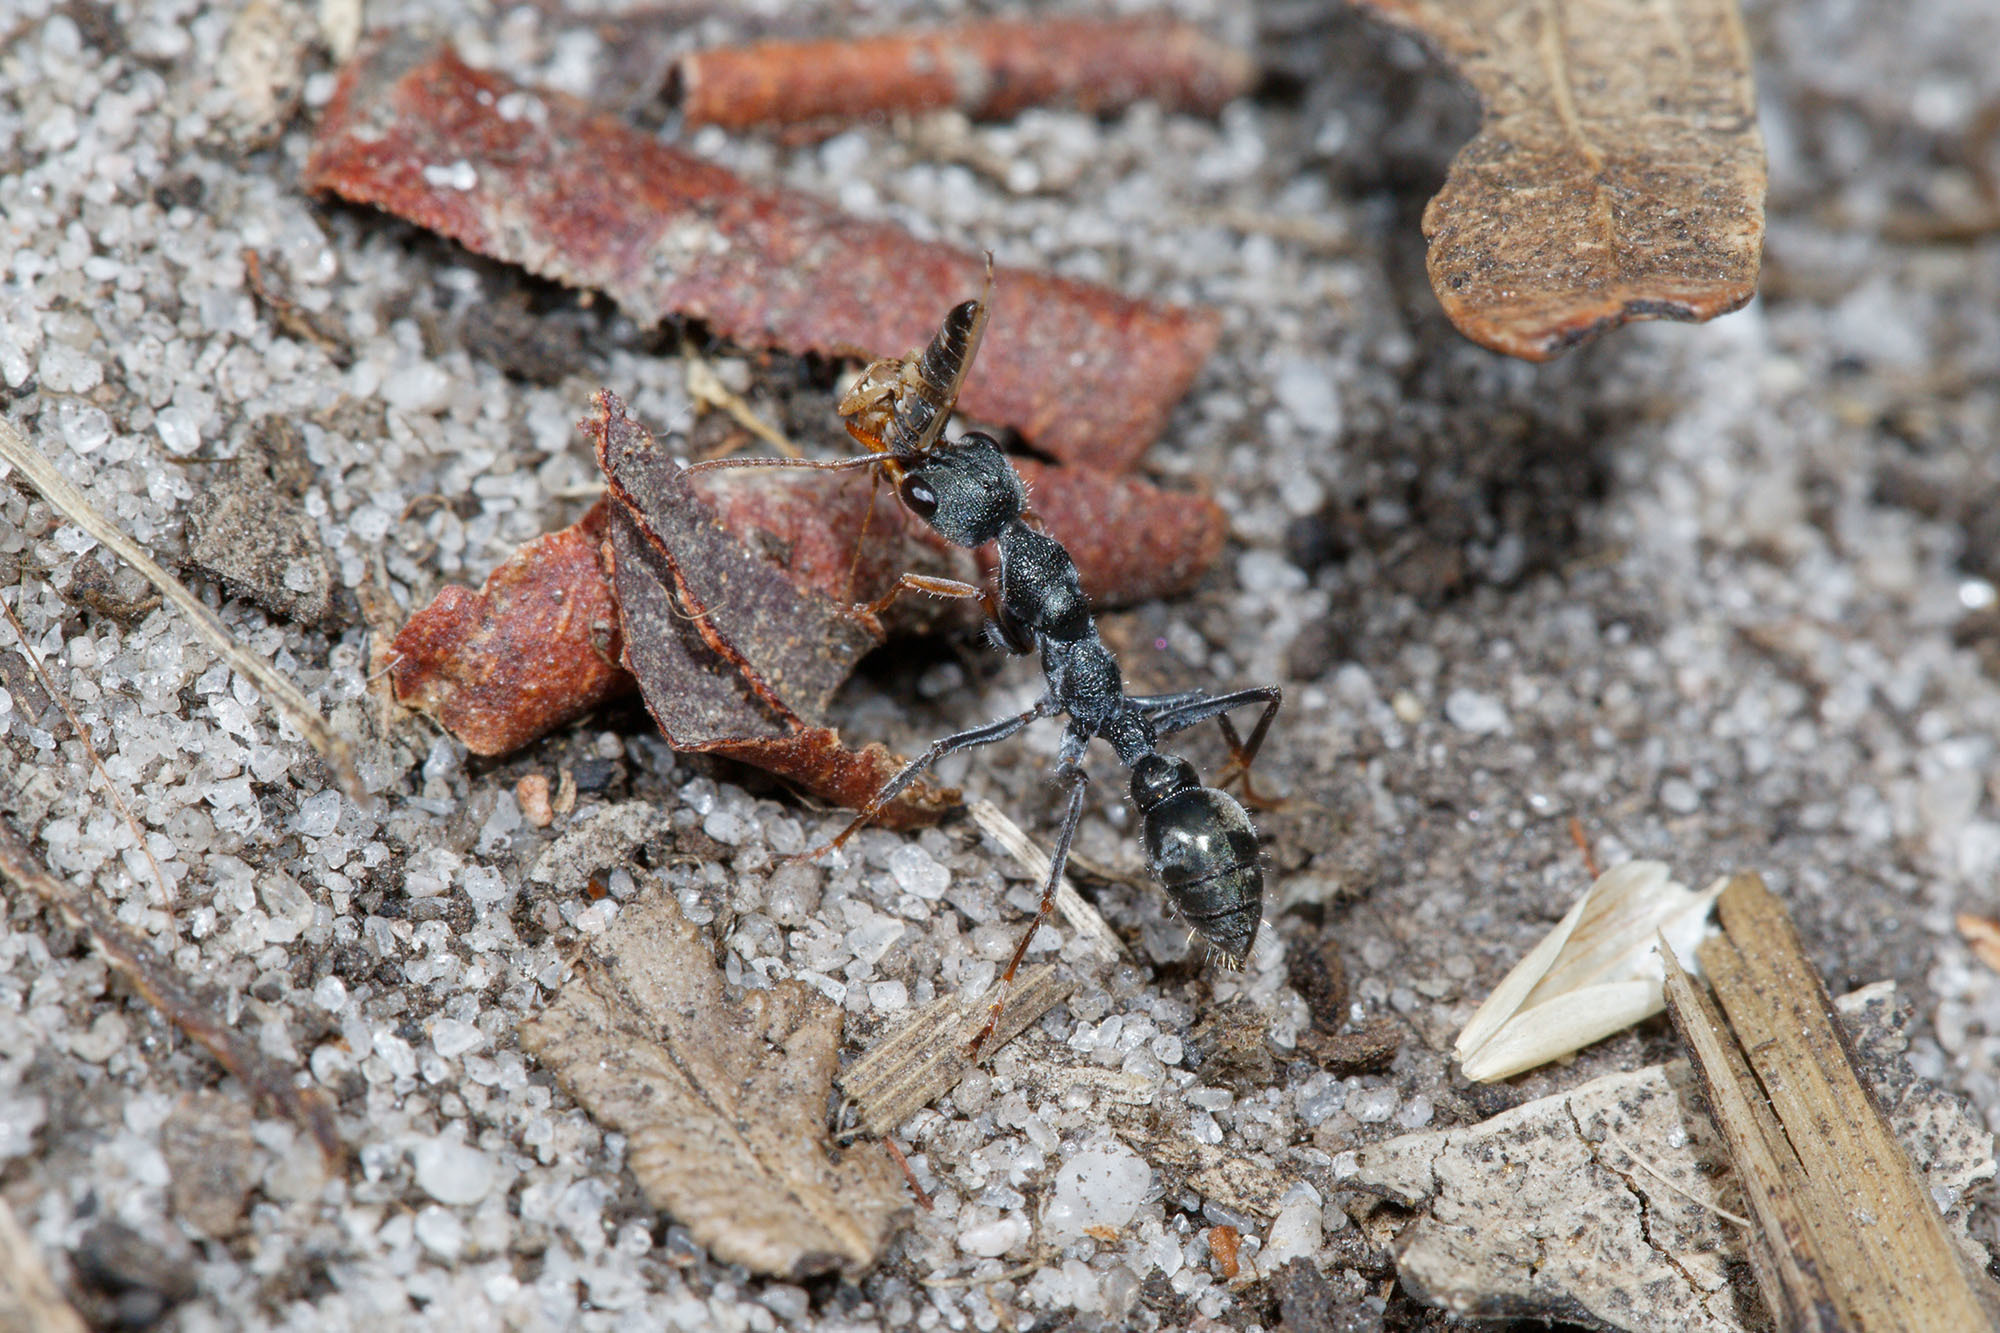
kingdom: Animalia
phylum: Arthropoda
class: Insecta
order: Hymenoptera
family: Formicidae
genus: Myrmecia
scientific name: Myrmecia urens
